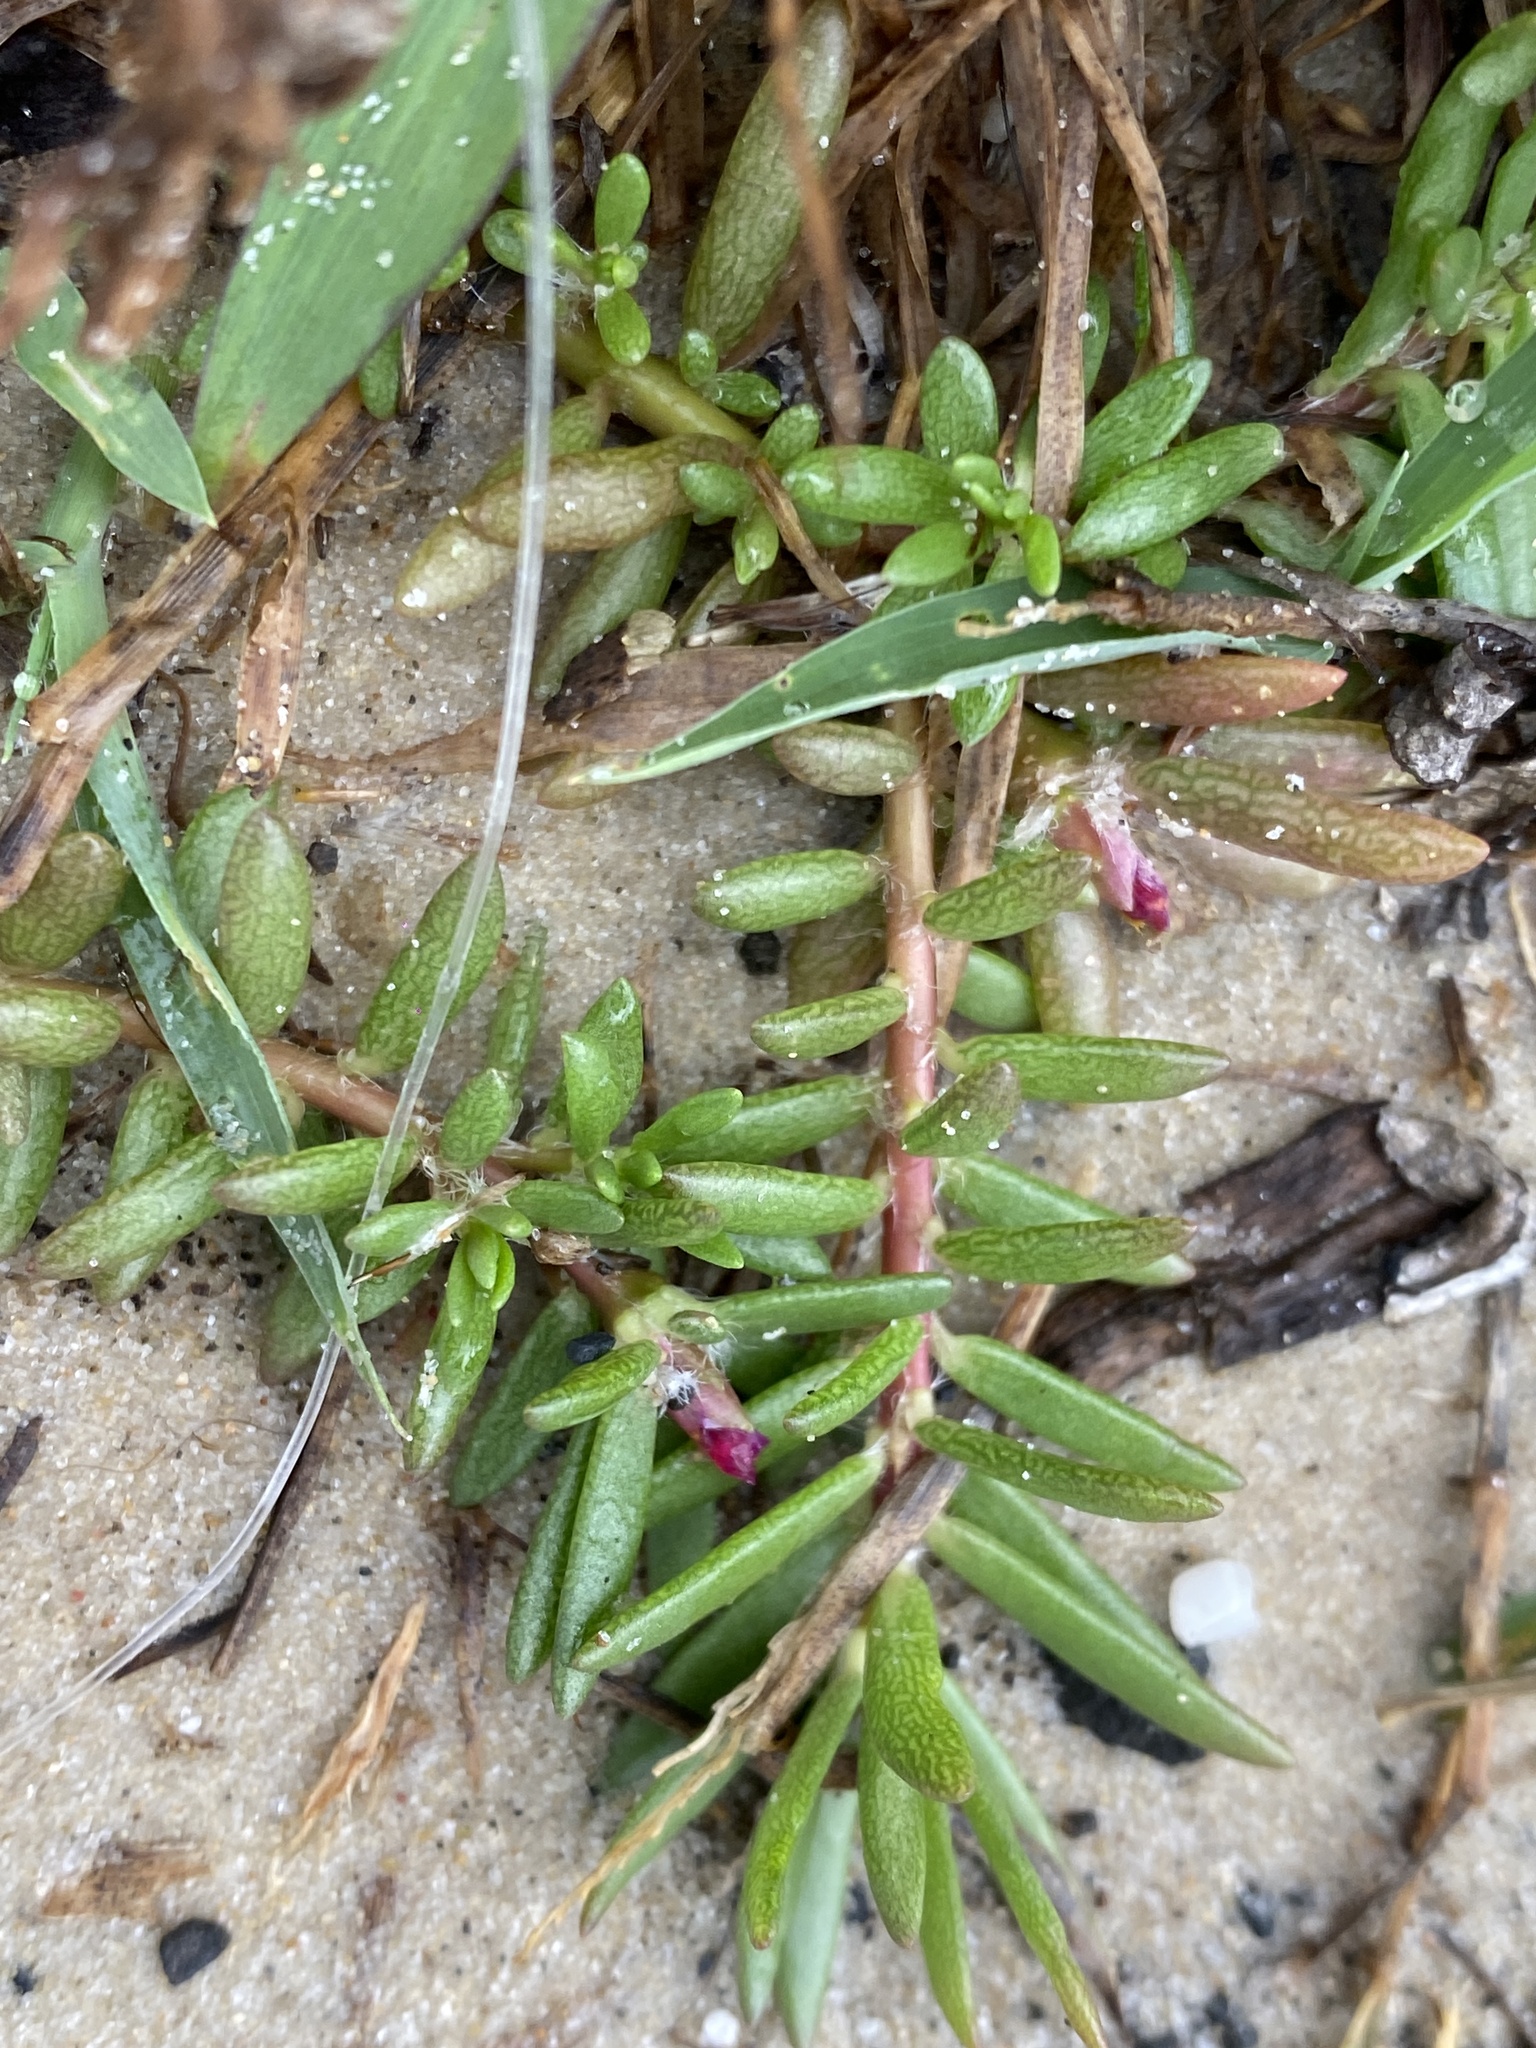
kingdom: Plantae
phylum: Tracheophyta
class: Magnoliopsida
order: Caryophyllales
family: Portulacaceae
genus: Portulaca
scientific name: Portulaca pilosa
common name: Kiss me quick
